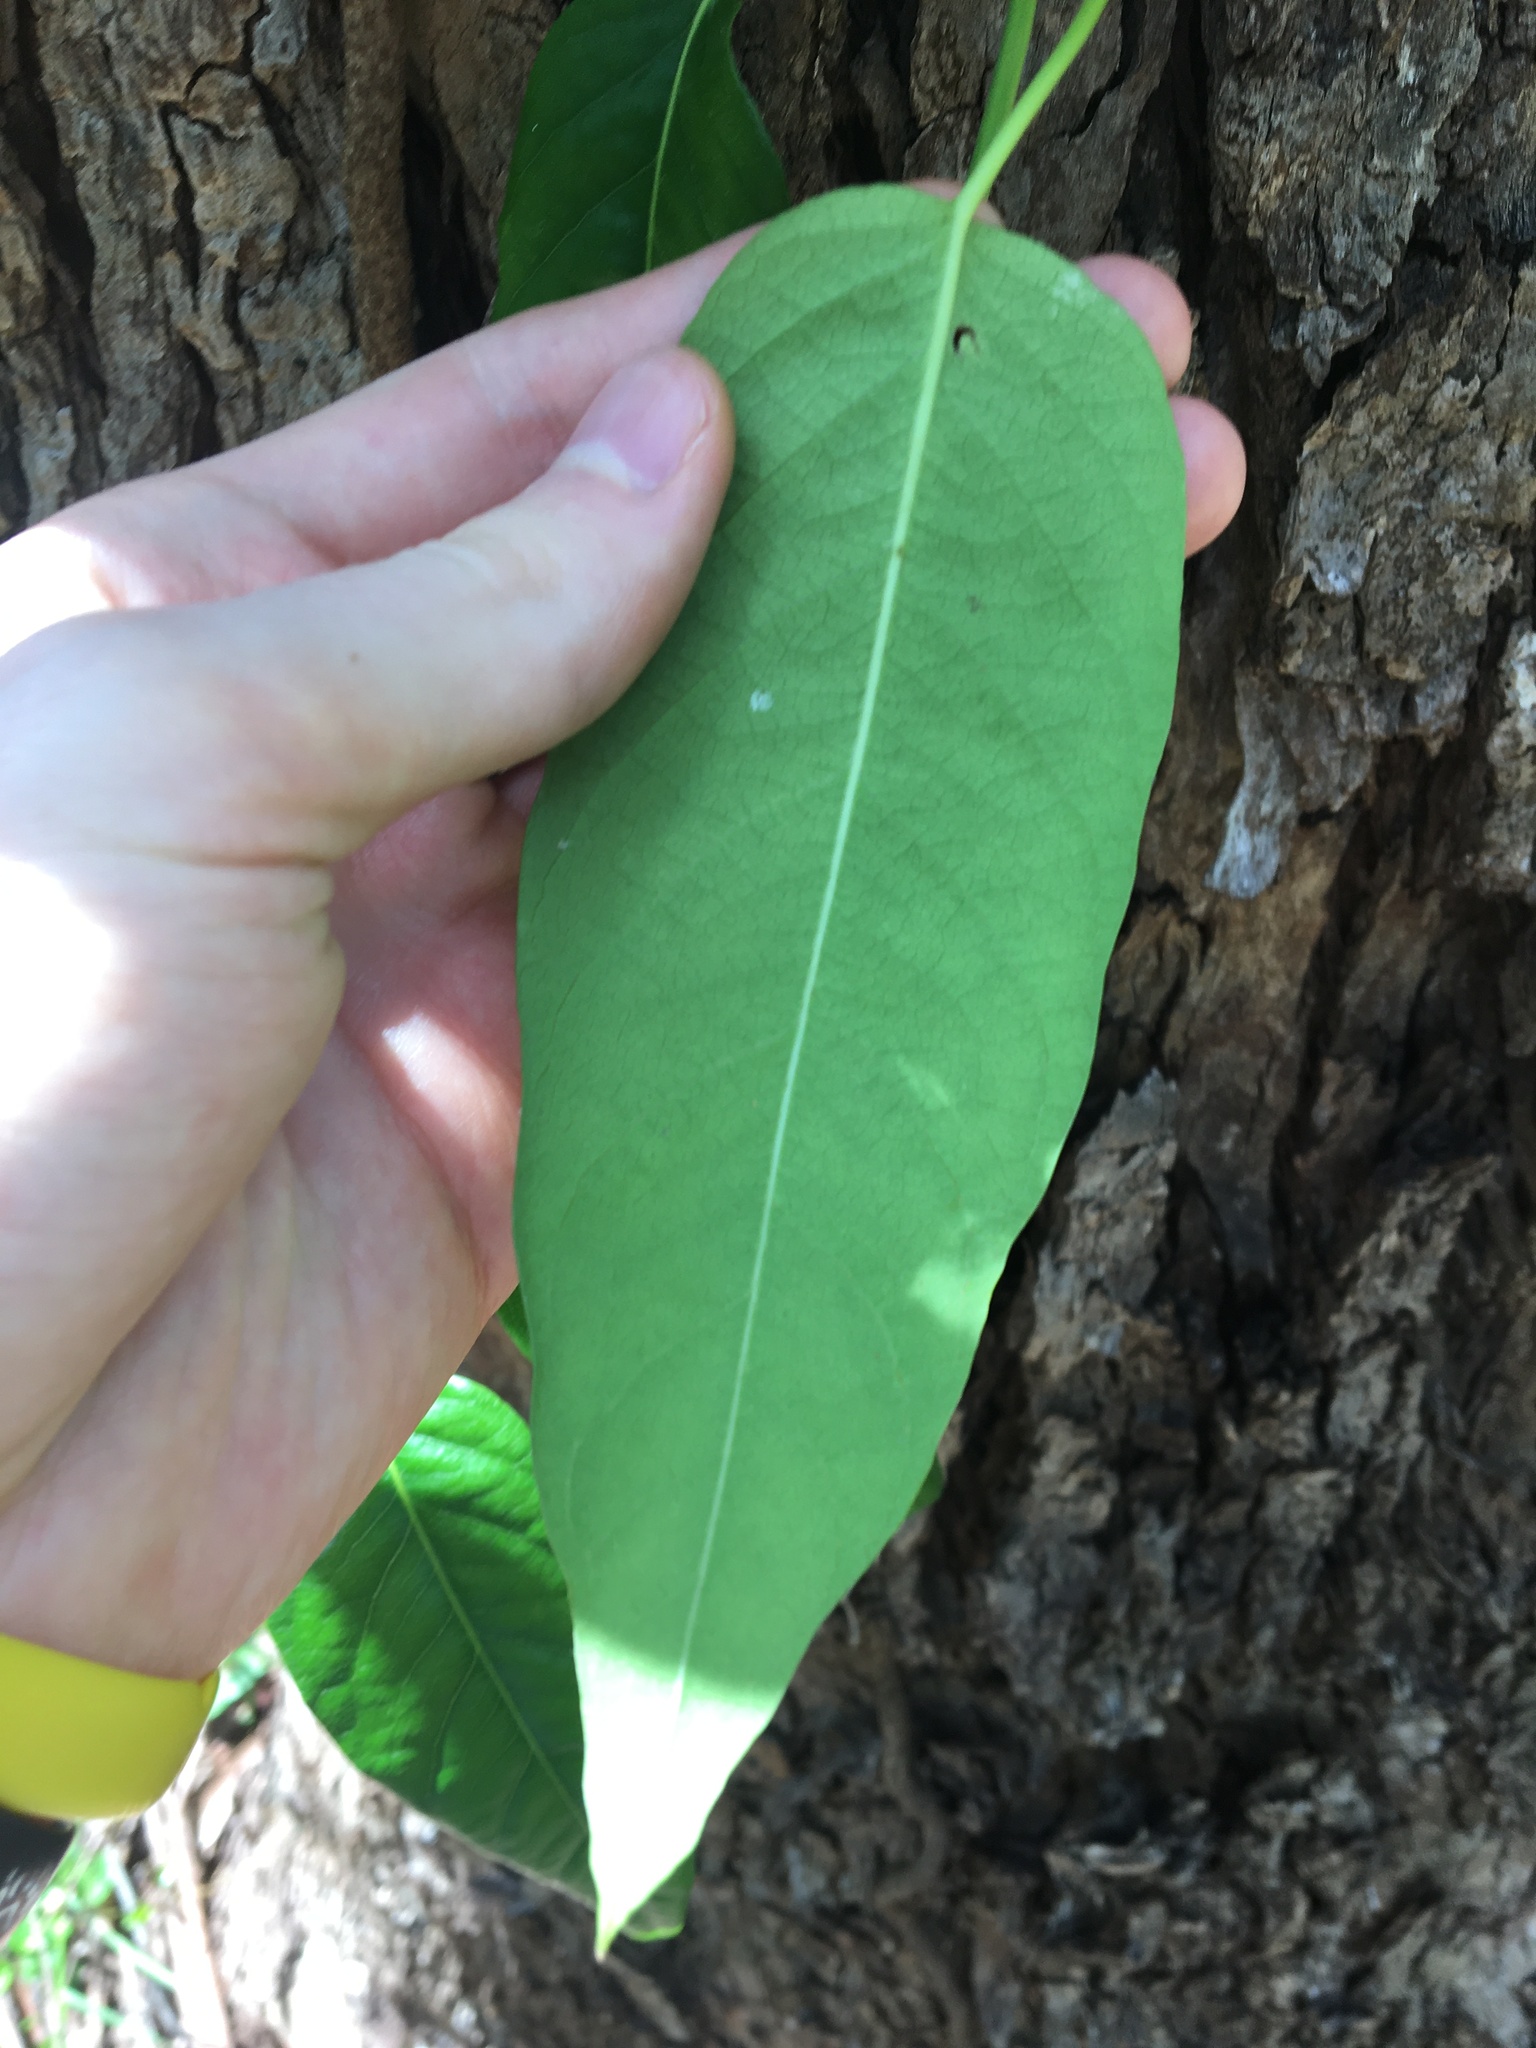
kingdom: Plantae
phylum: Tracheophyta
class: Magnoliopsida
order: Gentianales
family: Apocynaceae
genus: Parsonsia
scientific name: Parsonsia straminea
